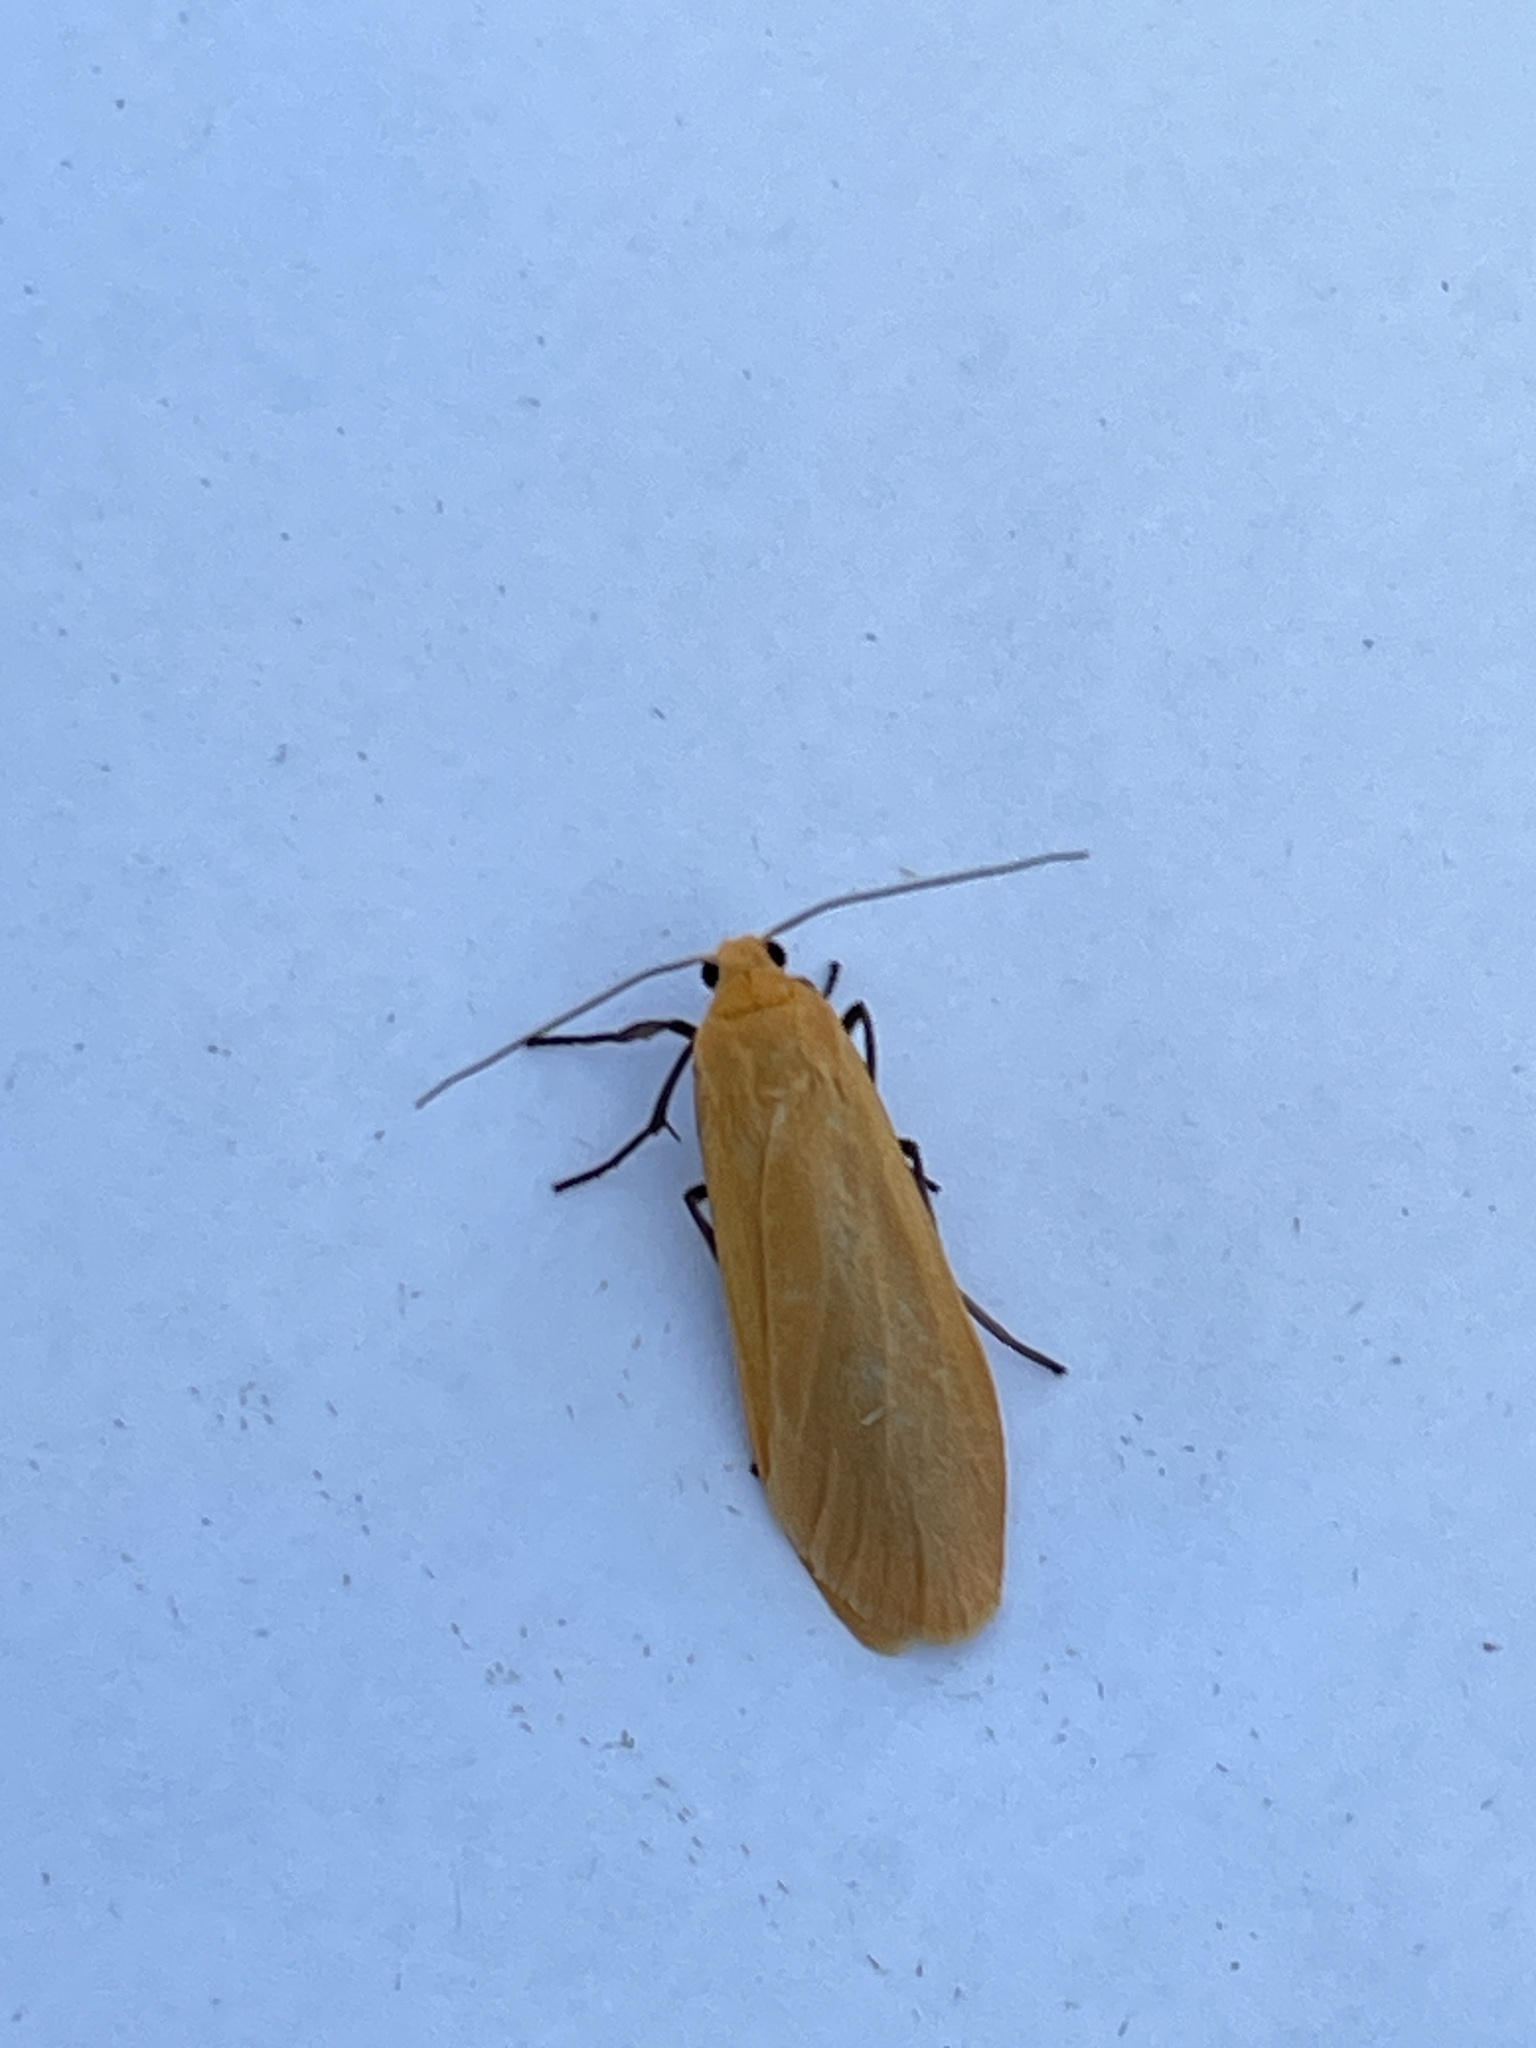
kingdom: Animalia
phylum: Arthropoda
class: Insecta
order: Lepidoptera
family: Erebidae
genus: Wittia
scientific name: Wittia sororcula
